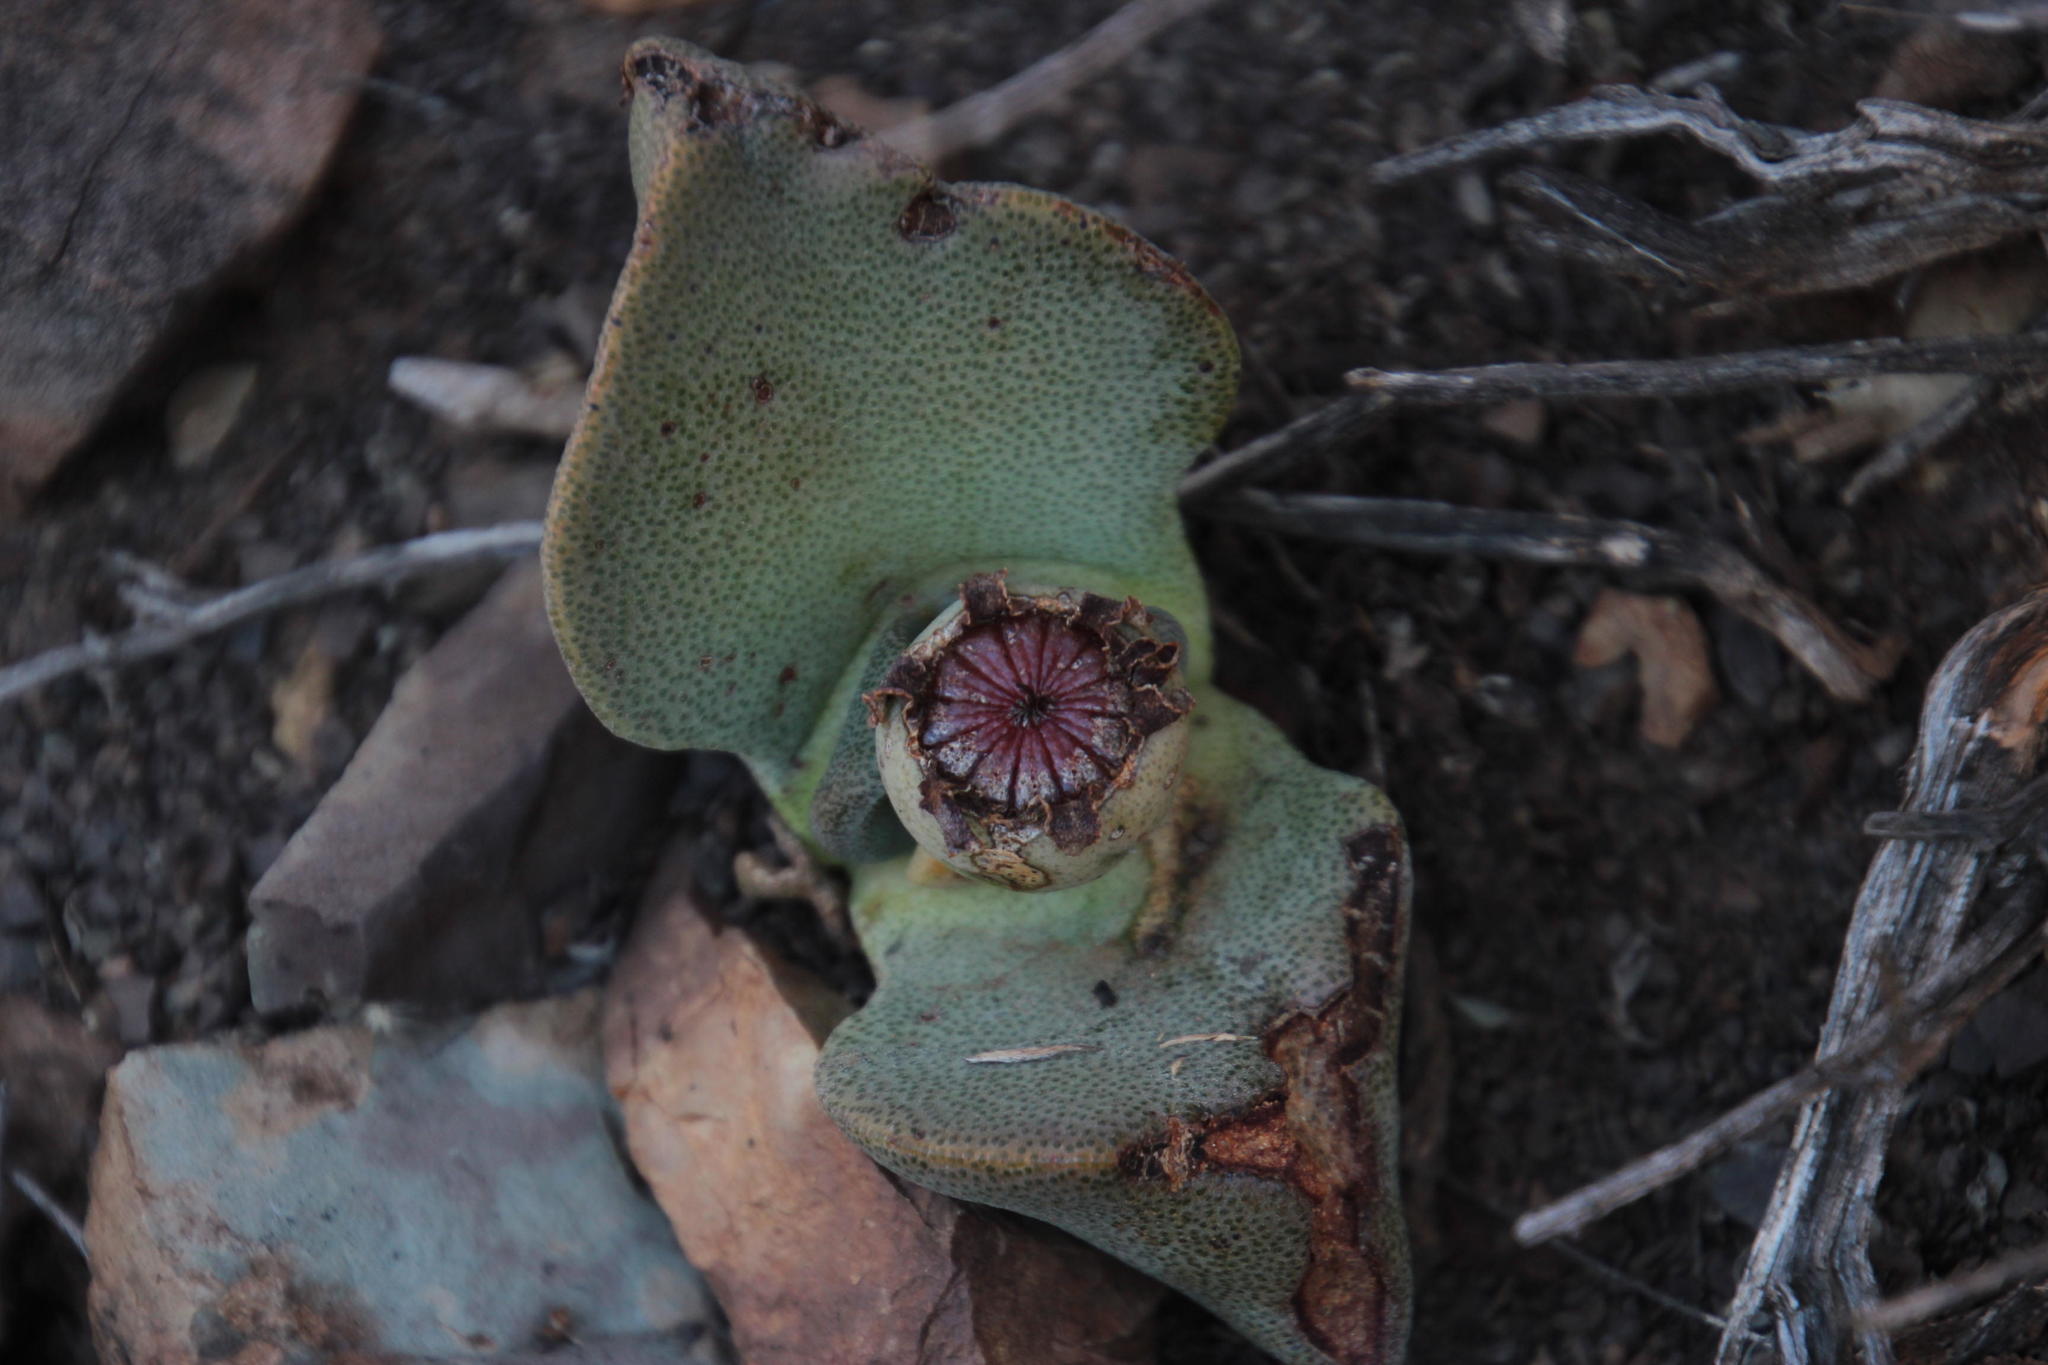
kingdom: Plantae
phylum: Tracheophyta
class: Magnoliopsida
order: Caryophyllales
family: Aizoaceae
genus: Pleiospilos
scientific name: Pleiospilos compactus
